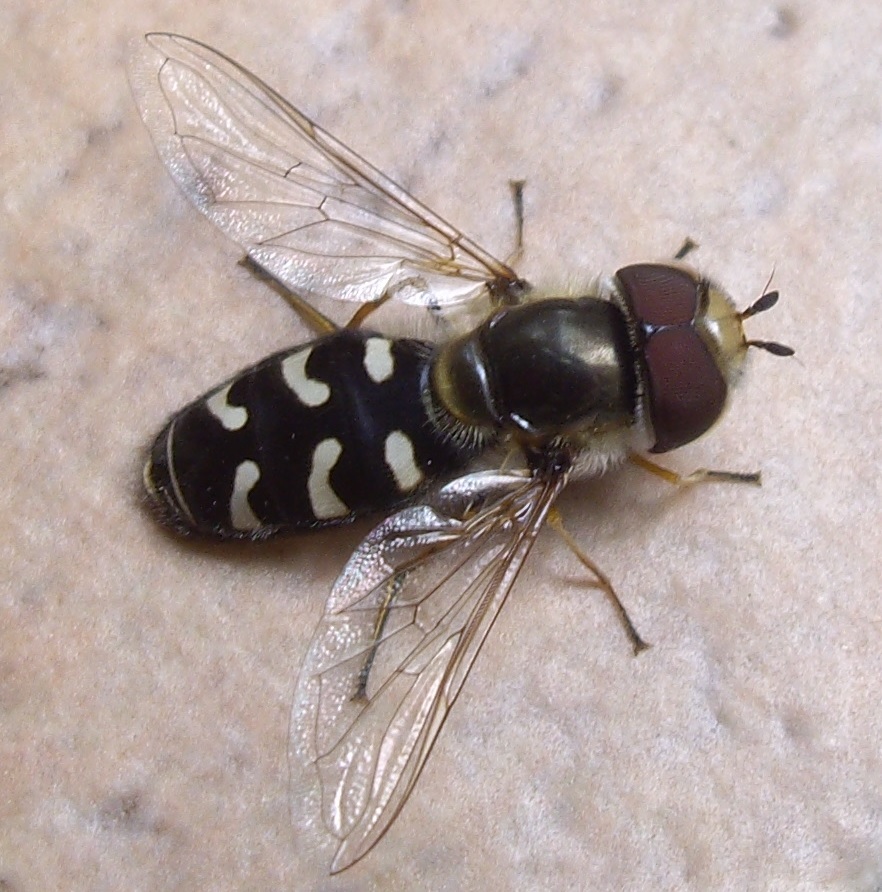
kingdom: Animalia
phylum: Arthropoda
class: Insecta
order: Diptera
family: Syrphidae
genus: Scaeva
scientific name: Scaeva pyrastri
